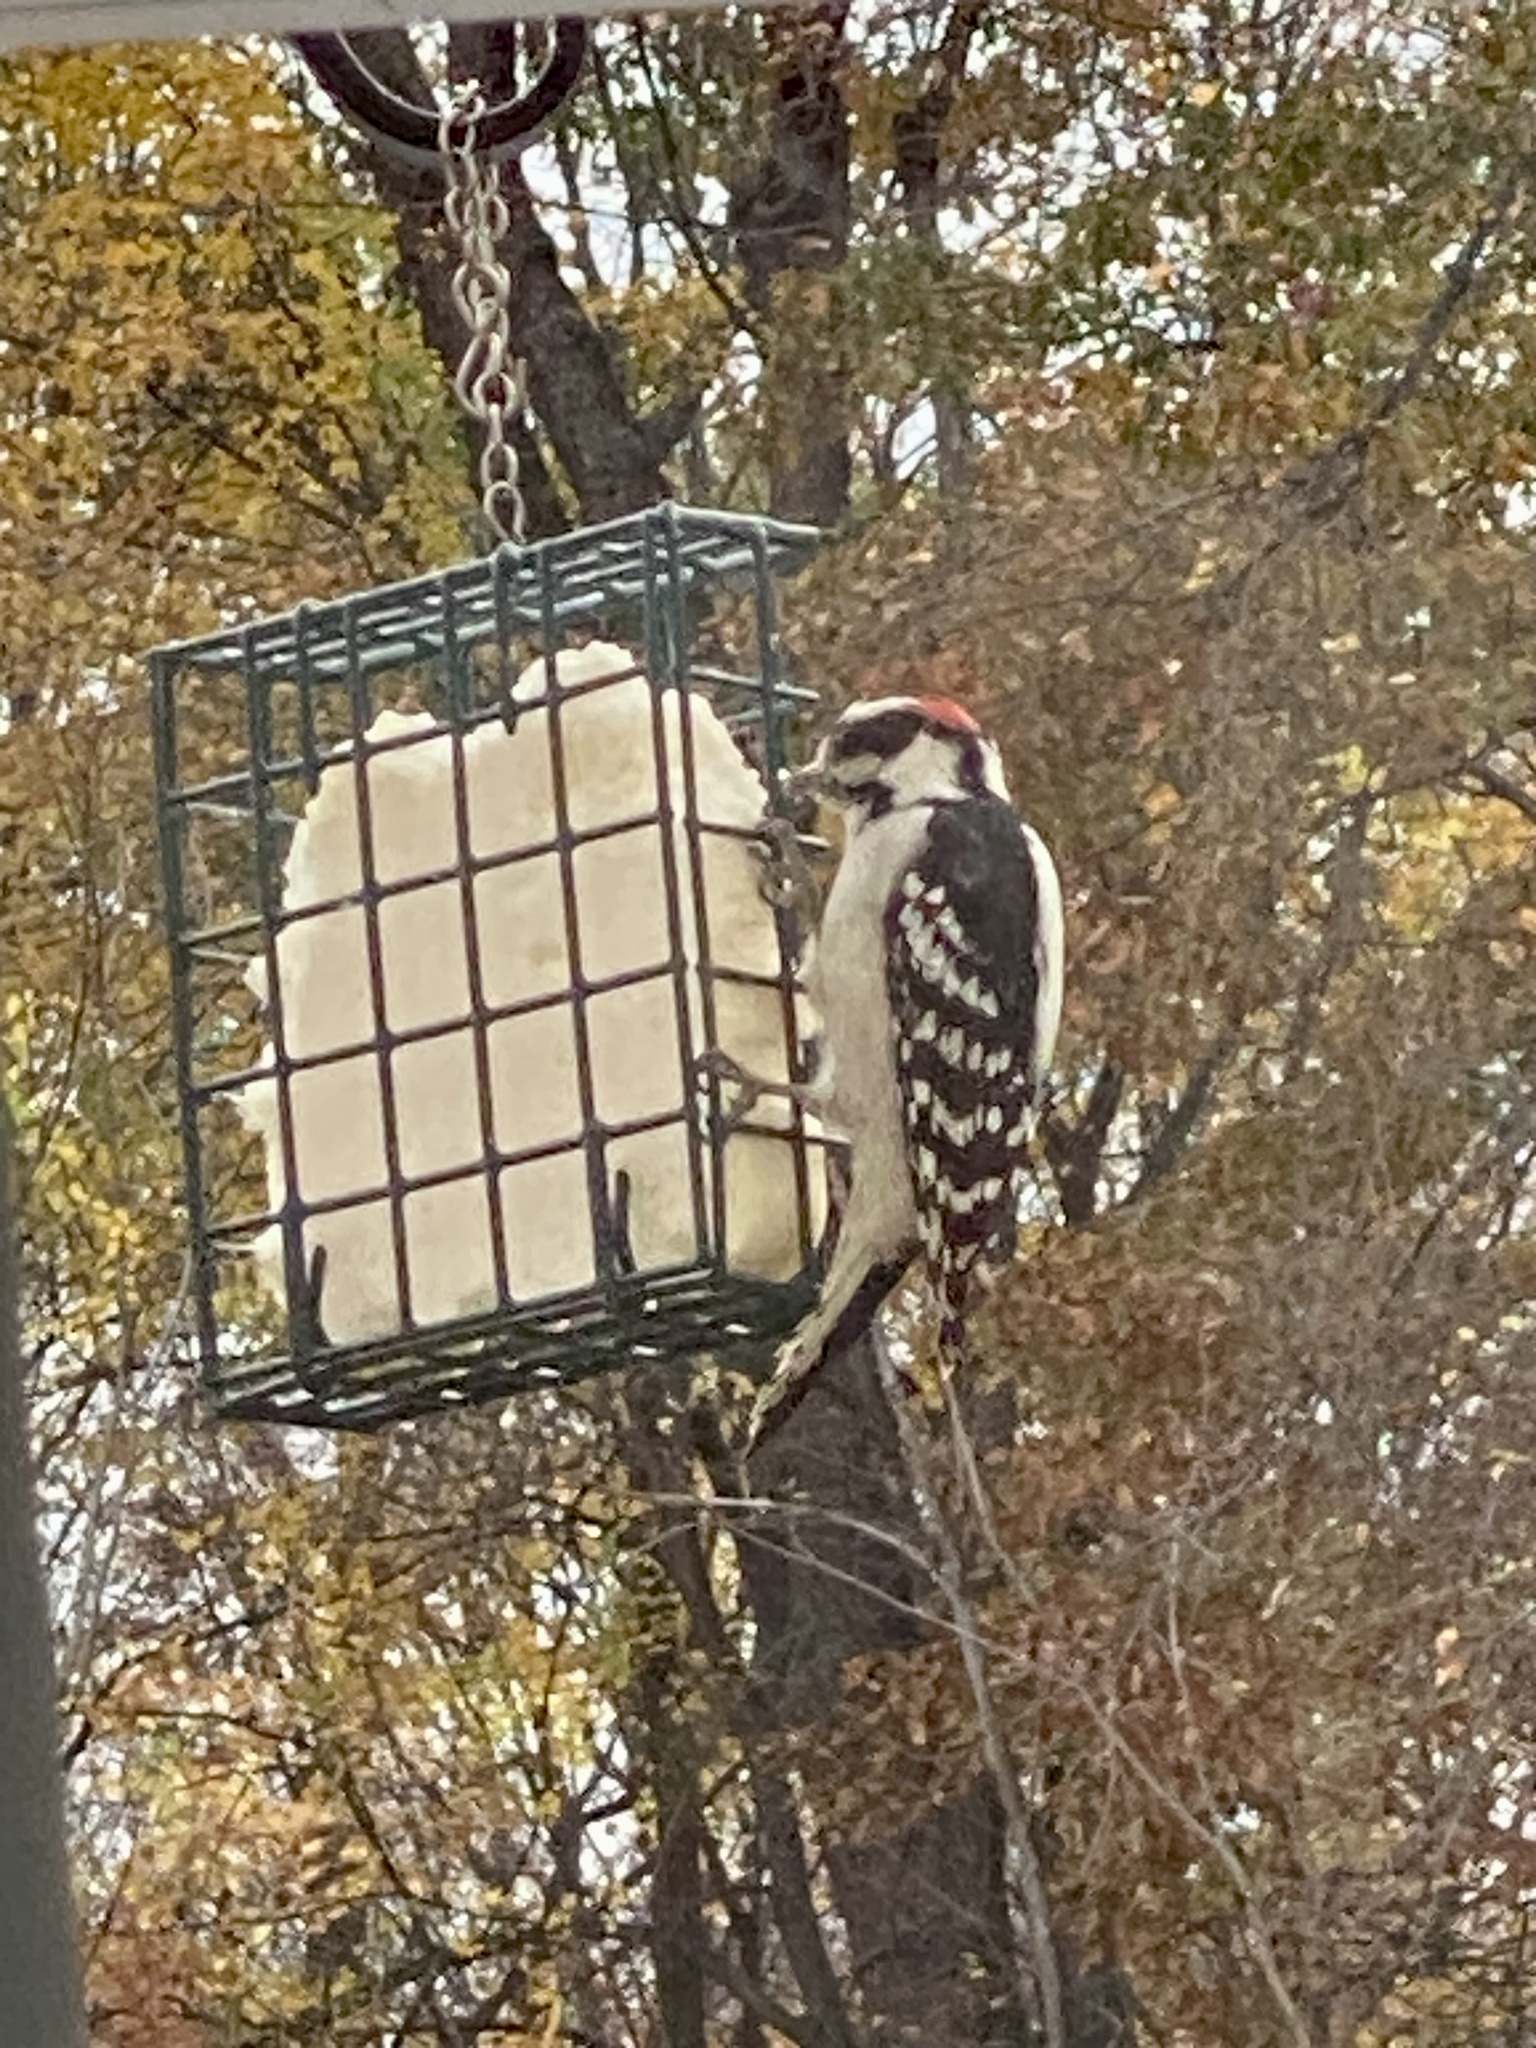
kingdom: Animalia
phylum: Chordata
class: Aves
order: Piciformes
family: Picidae
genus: Dryobates
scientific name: Dryobates pubescens
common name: Downy woodpecker
